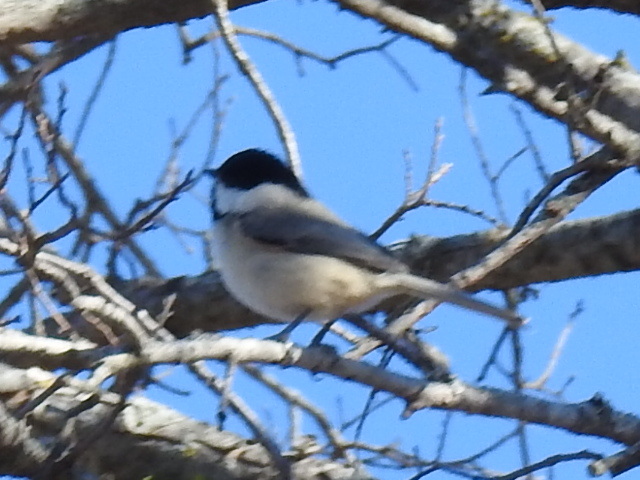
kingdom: Animalia
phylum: Chordata
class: Aves
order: Passeriformes
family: Paridae
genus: Poecile
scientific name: Poecile carolinensis
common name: Carolina chickadee
